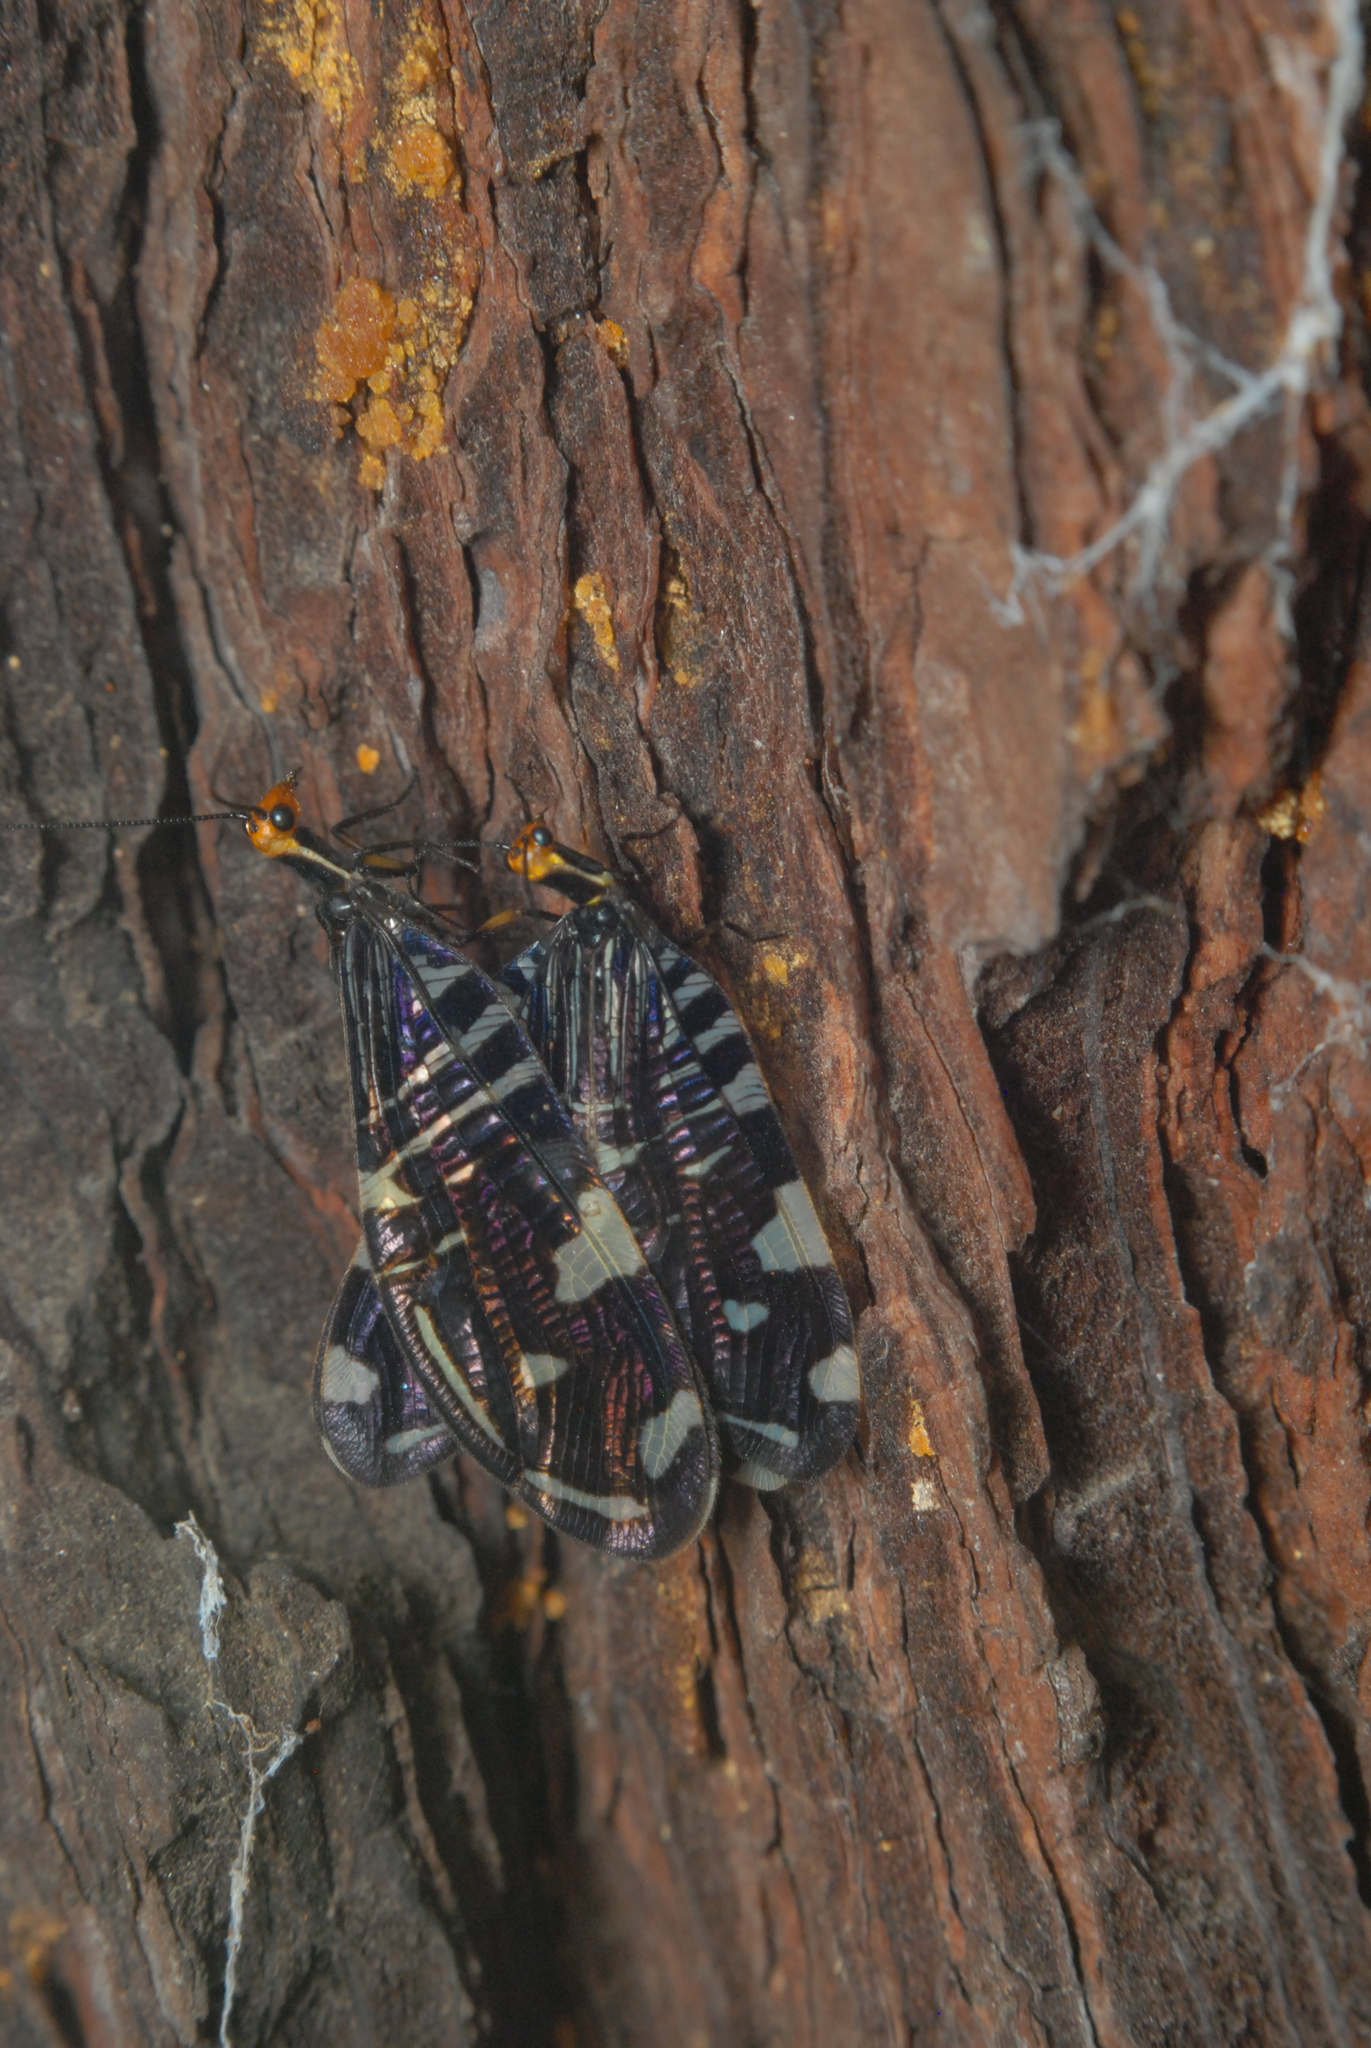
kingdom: Animalia
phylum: Arthropoda
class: Insecta
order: Neuroptera
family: Osmylidae
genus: Porismus
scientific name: Porismus strigatus
